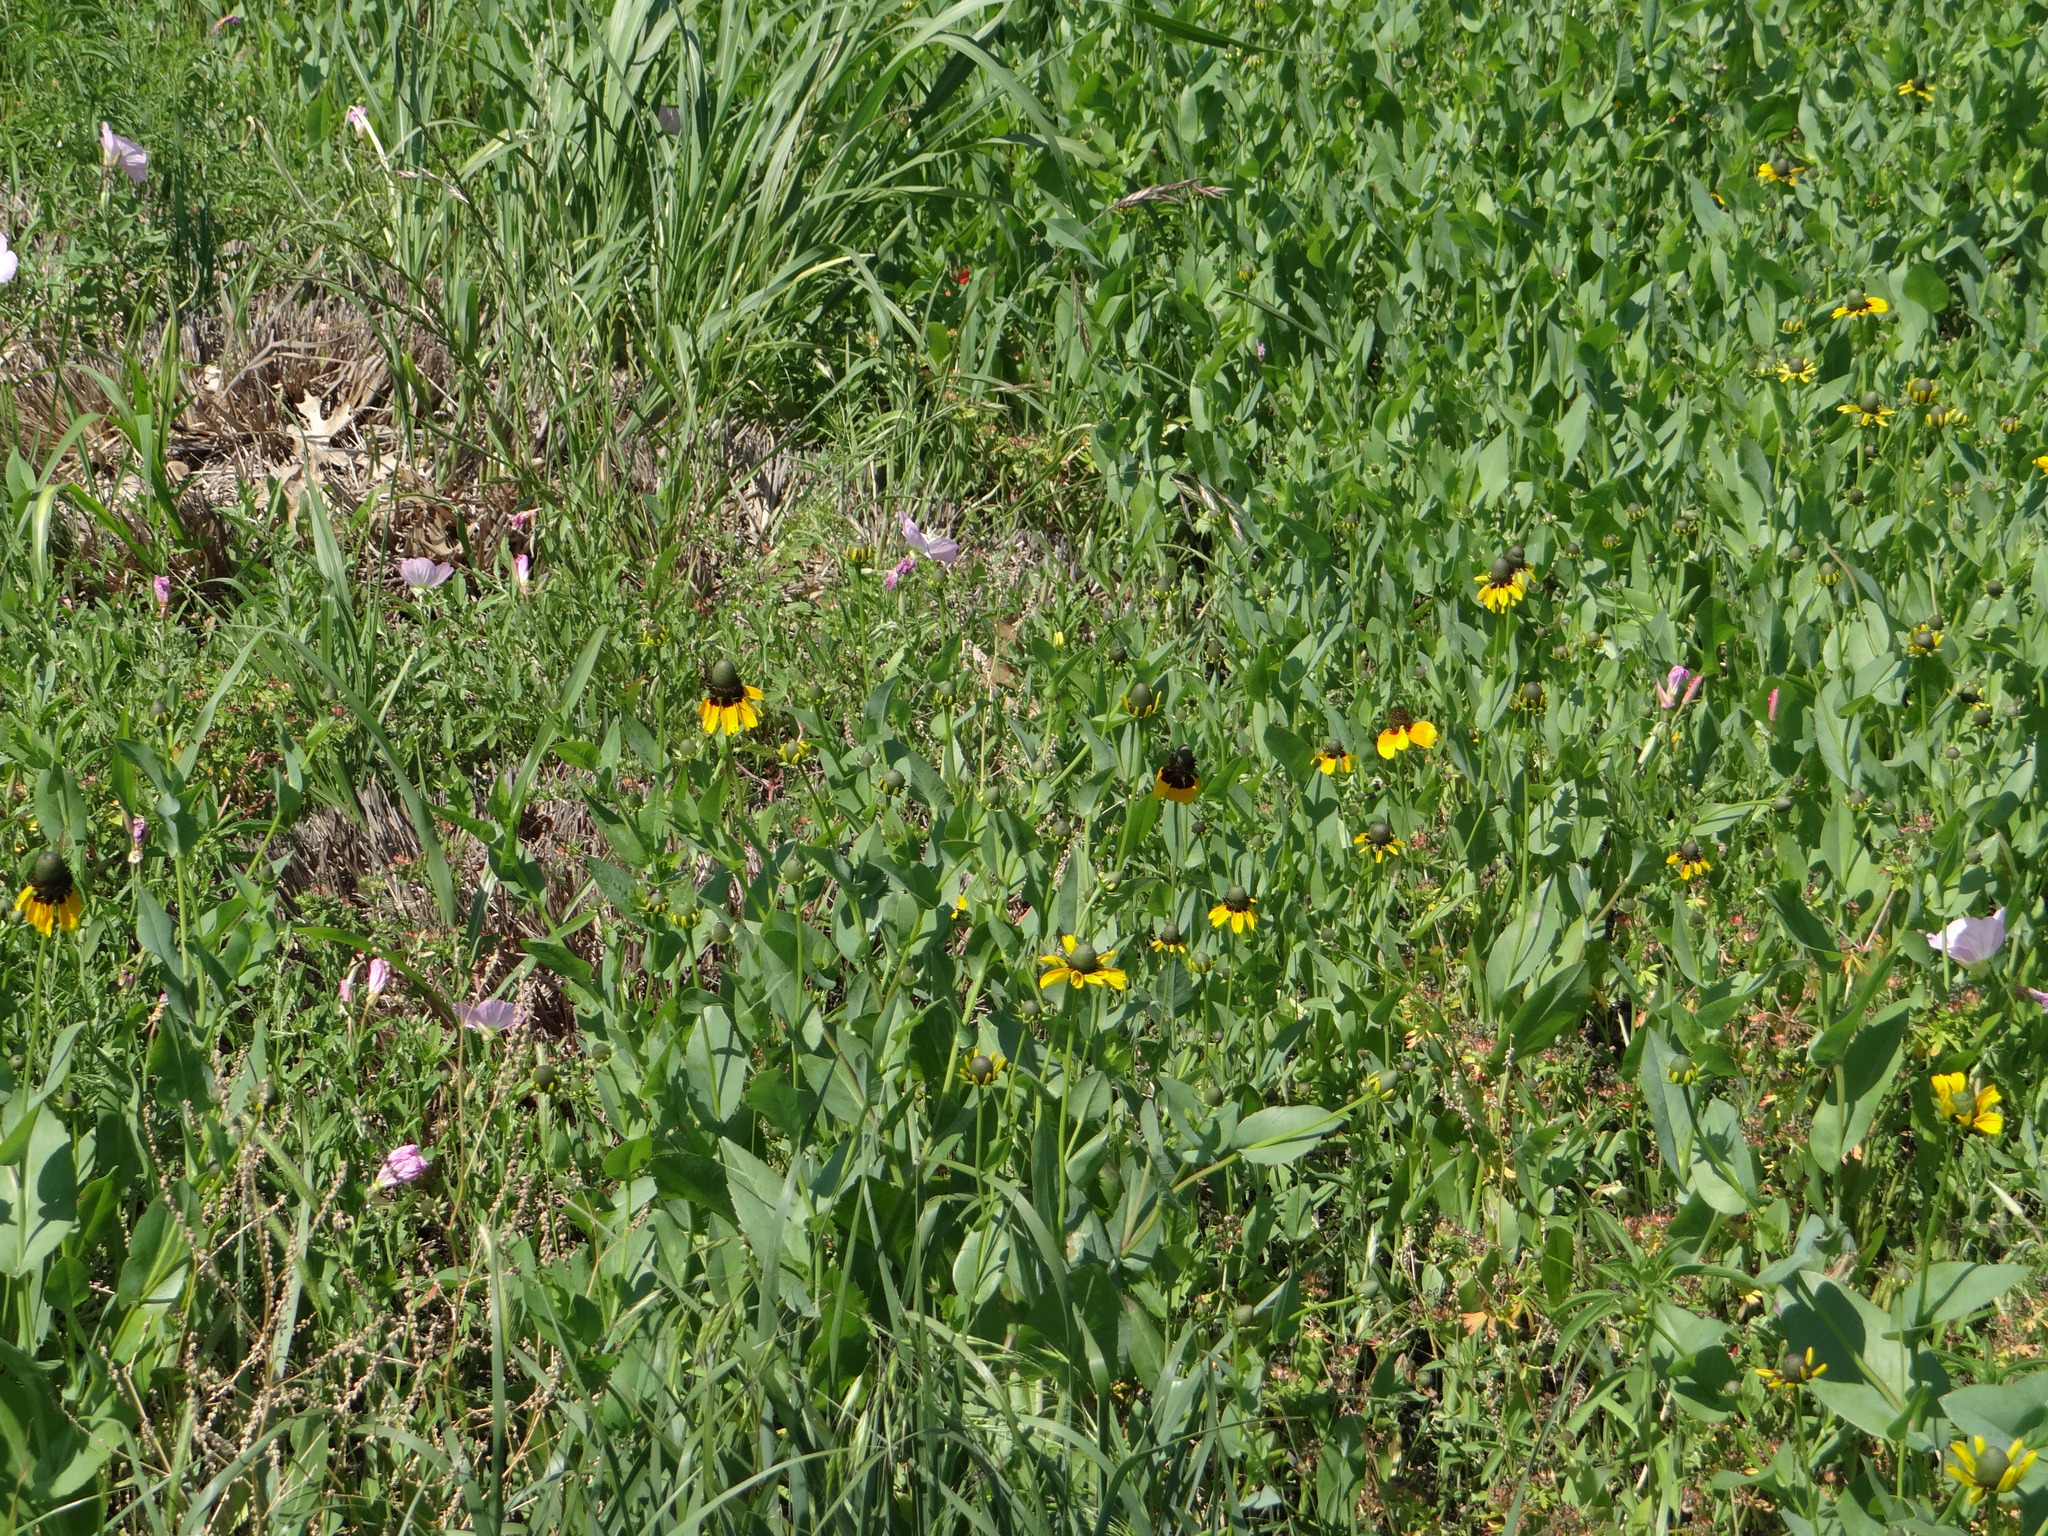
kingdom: Plantae
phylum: Tracheophyta
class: Magnoliopsida
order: Asterales
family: Asteraceae
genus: Rudbeckia
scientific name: Rudbeckia amplexicaulis
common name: Clasping-leaf coneflower
